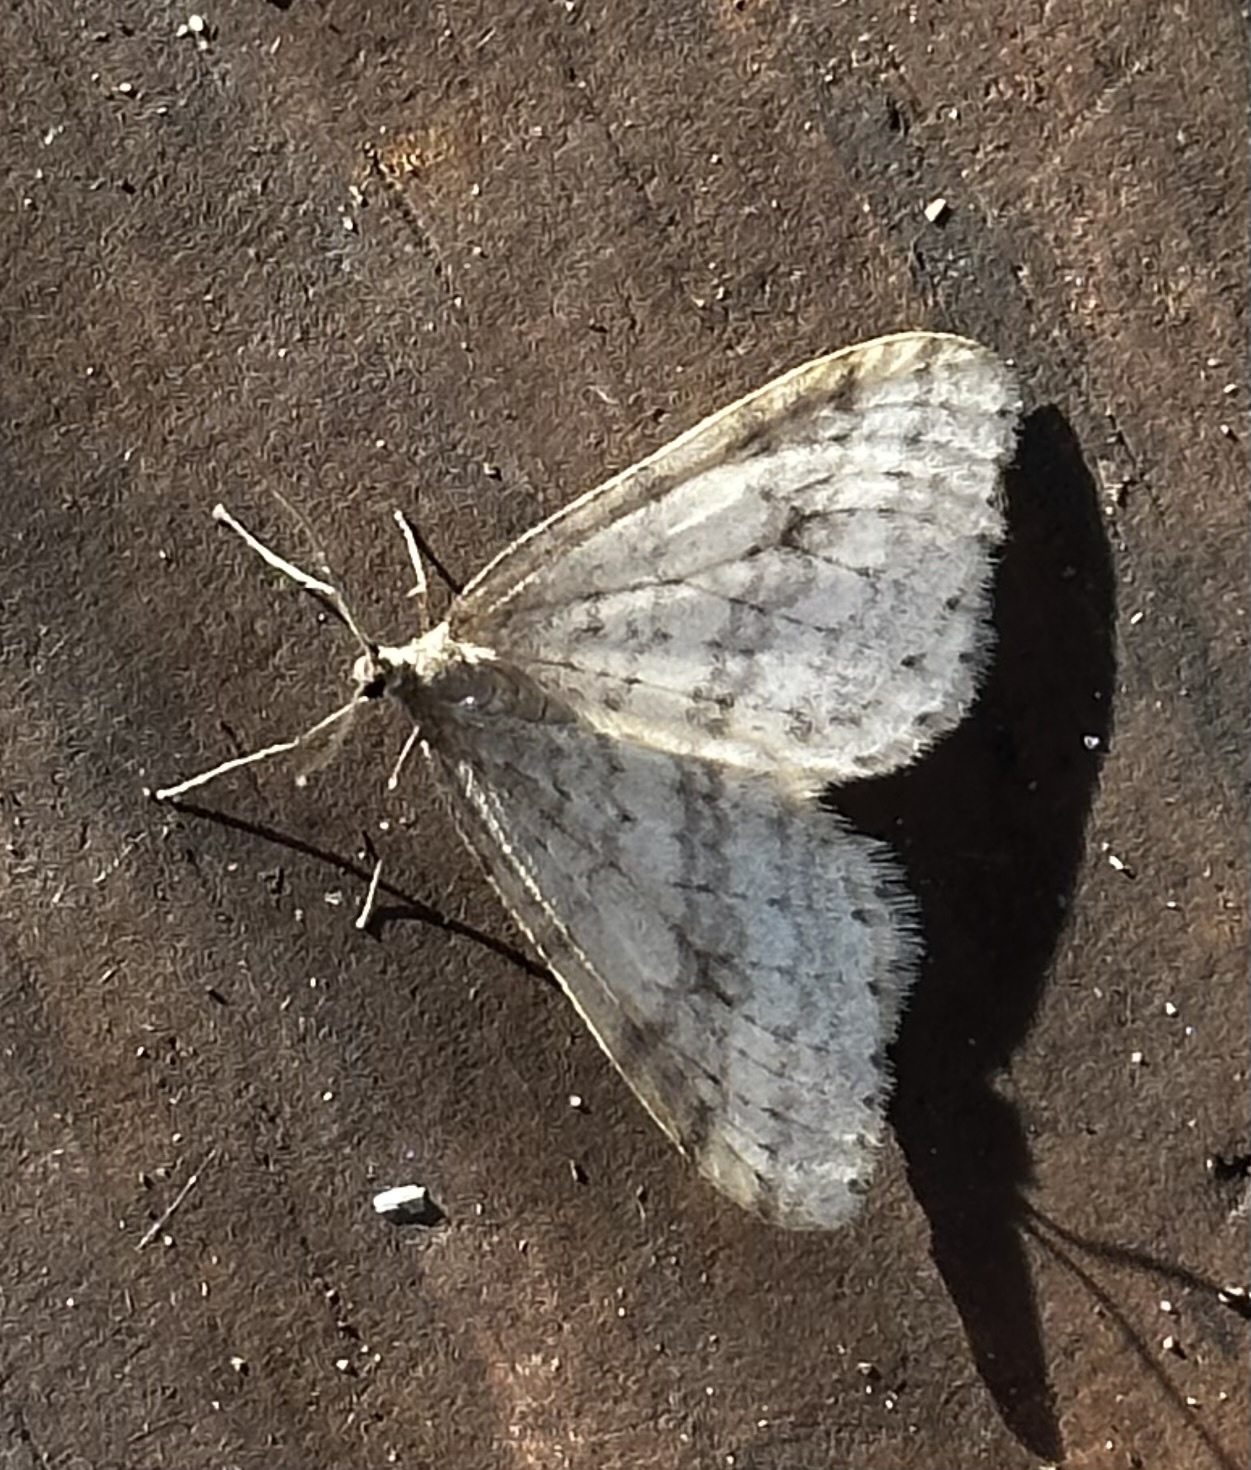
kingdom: Animalia
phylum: Arthropoda
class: Insecta
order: Lepidoptera
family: Geometridae
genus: Operophtera
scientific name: Operophtera bruceata
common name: Bruce spanworm
